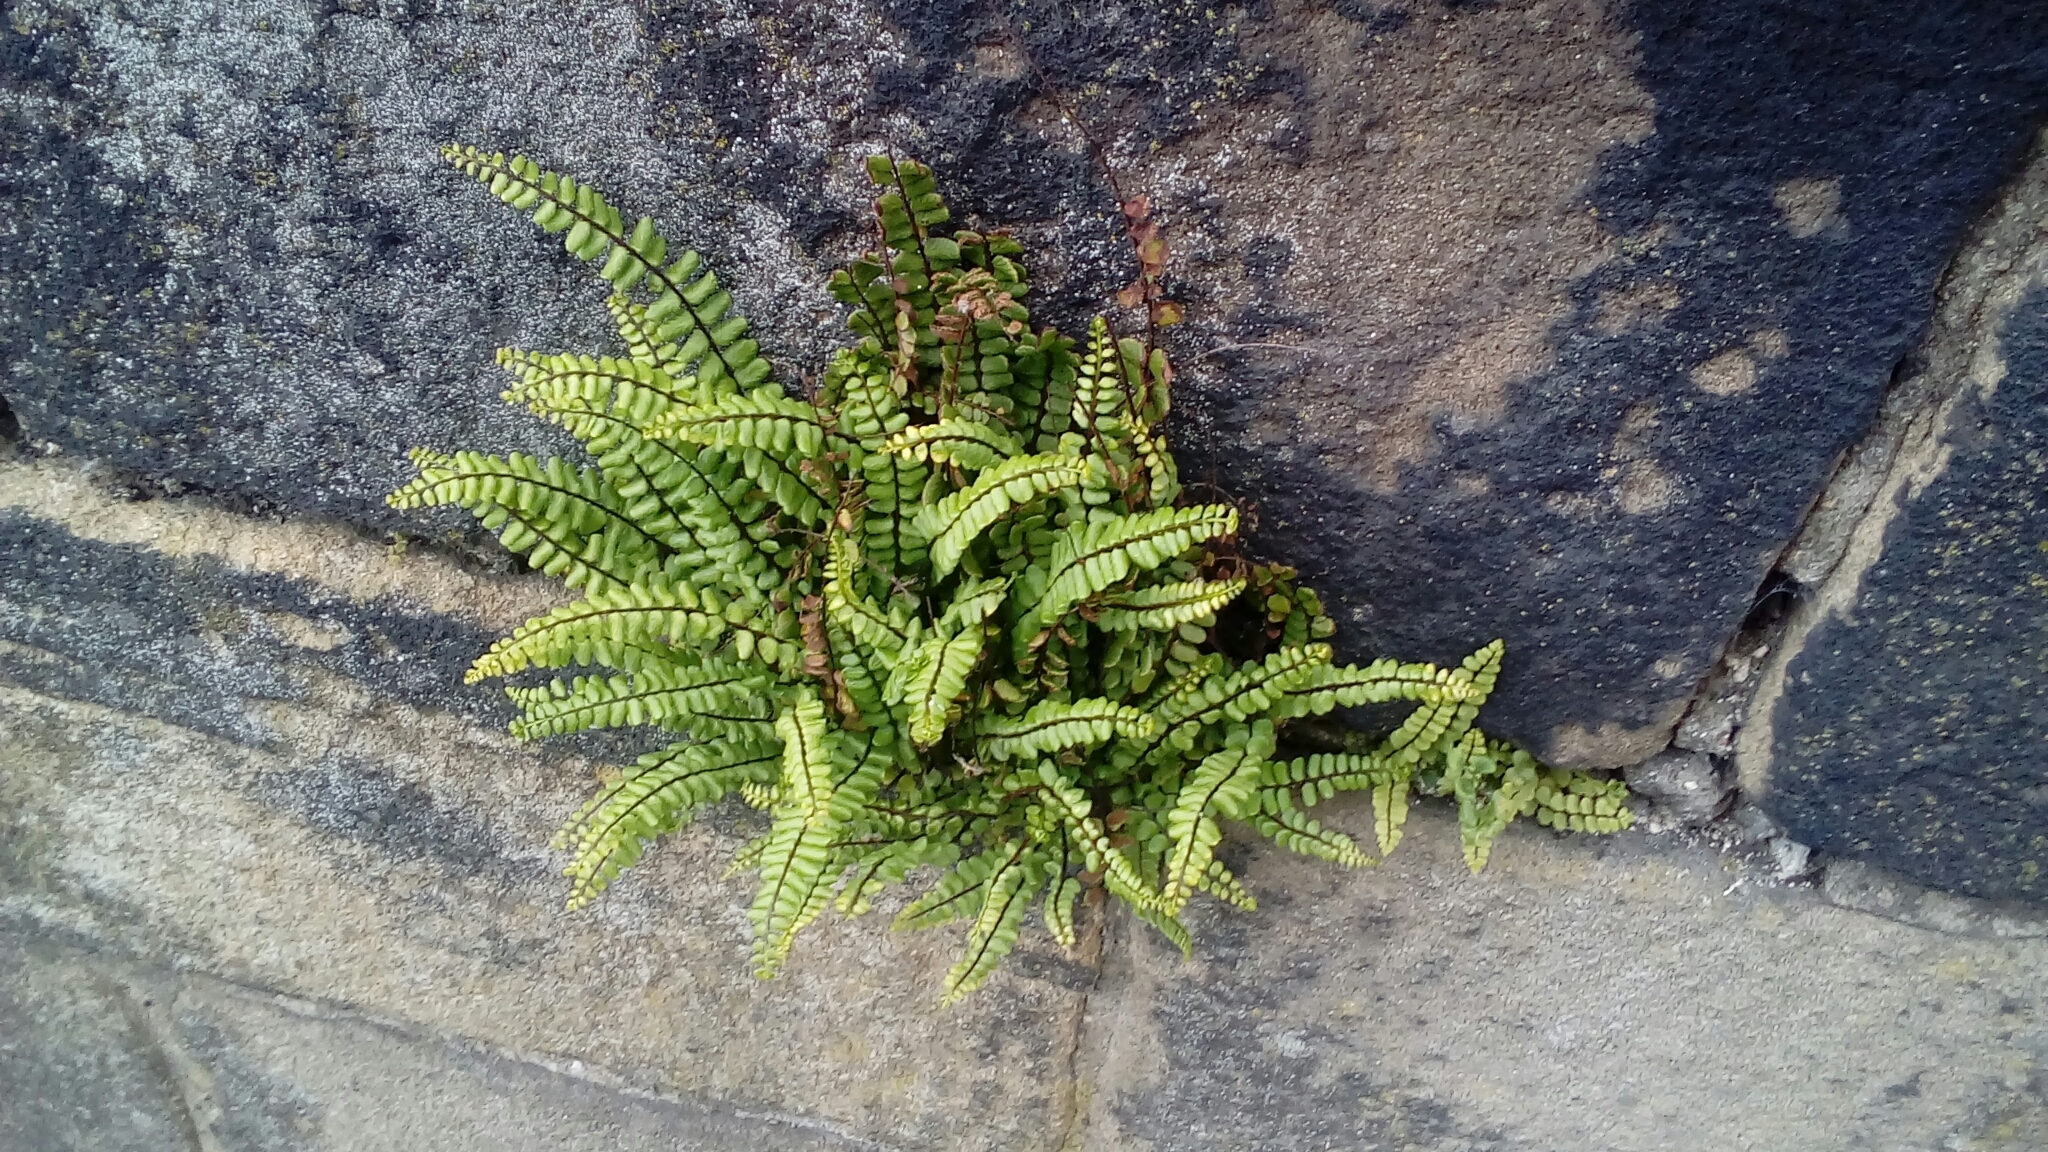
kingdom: Plantae
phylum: Tracheophyta
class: Polypodiopsida
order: Polypodiales
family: Aspleniaceae
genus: Asplenium
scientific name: Asplenium trichomanes
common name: Maidenhair spleenwort
